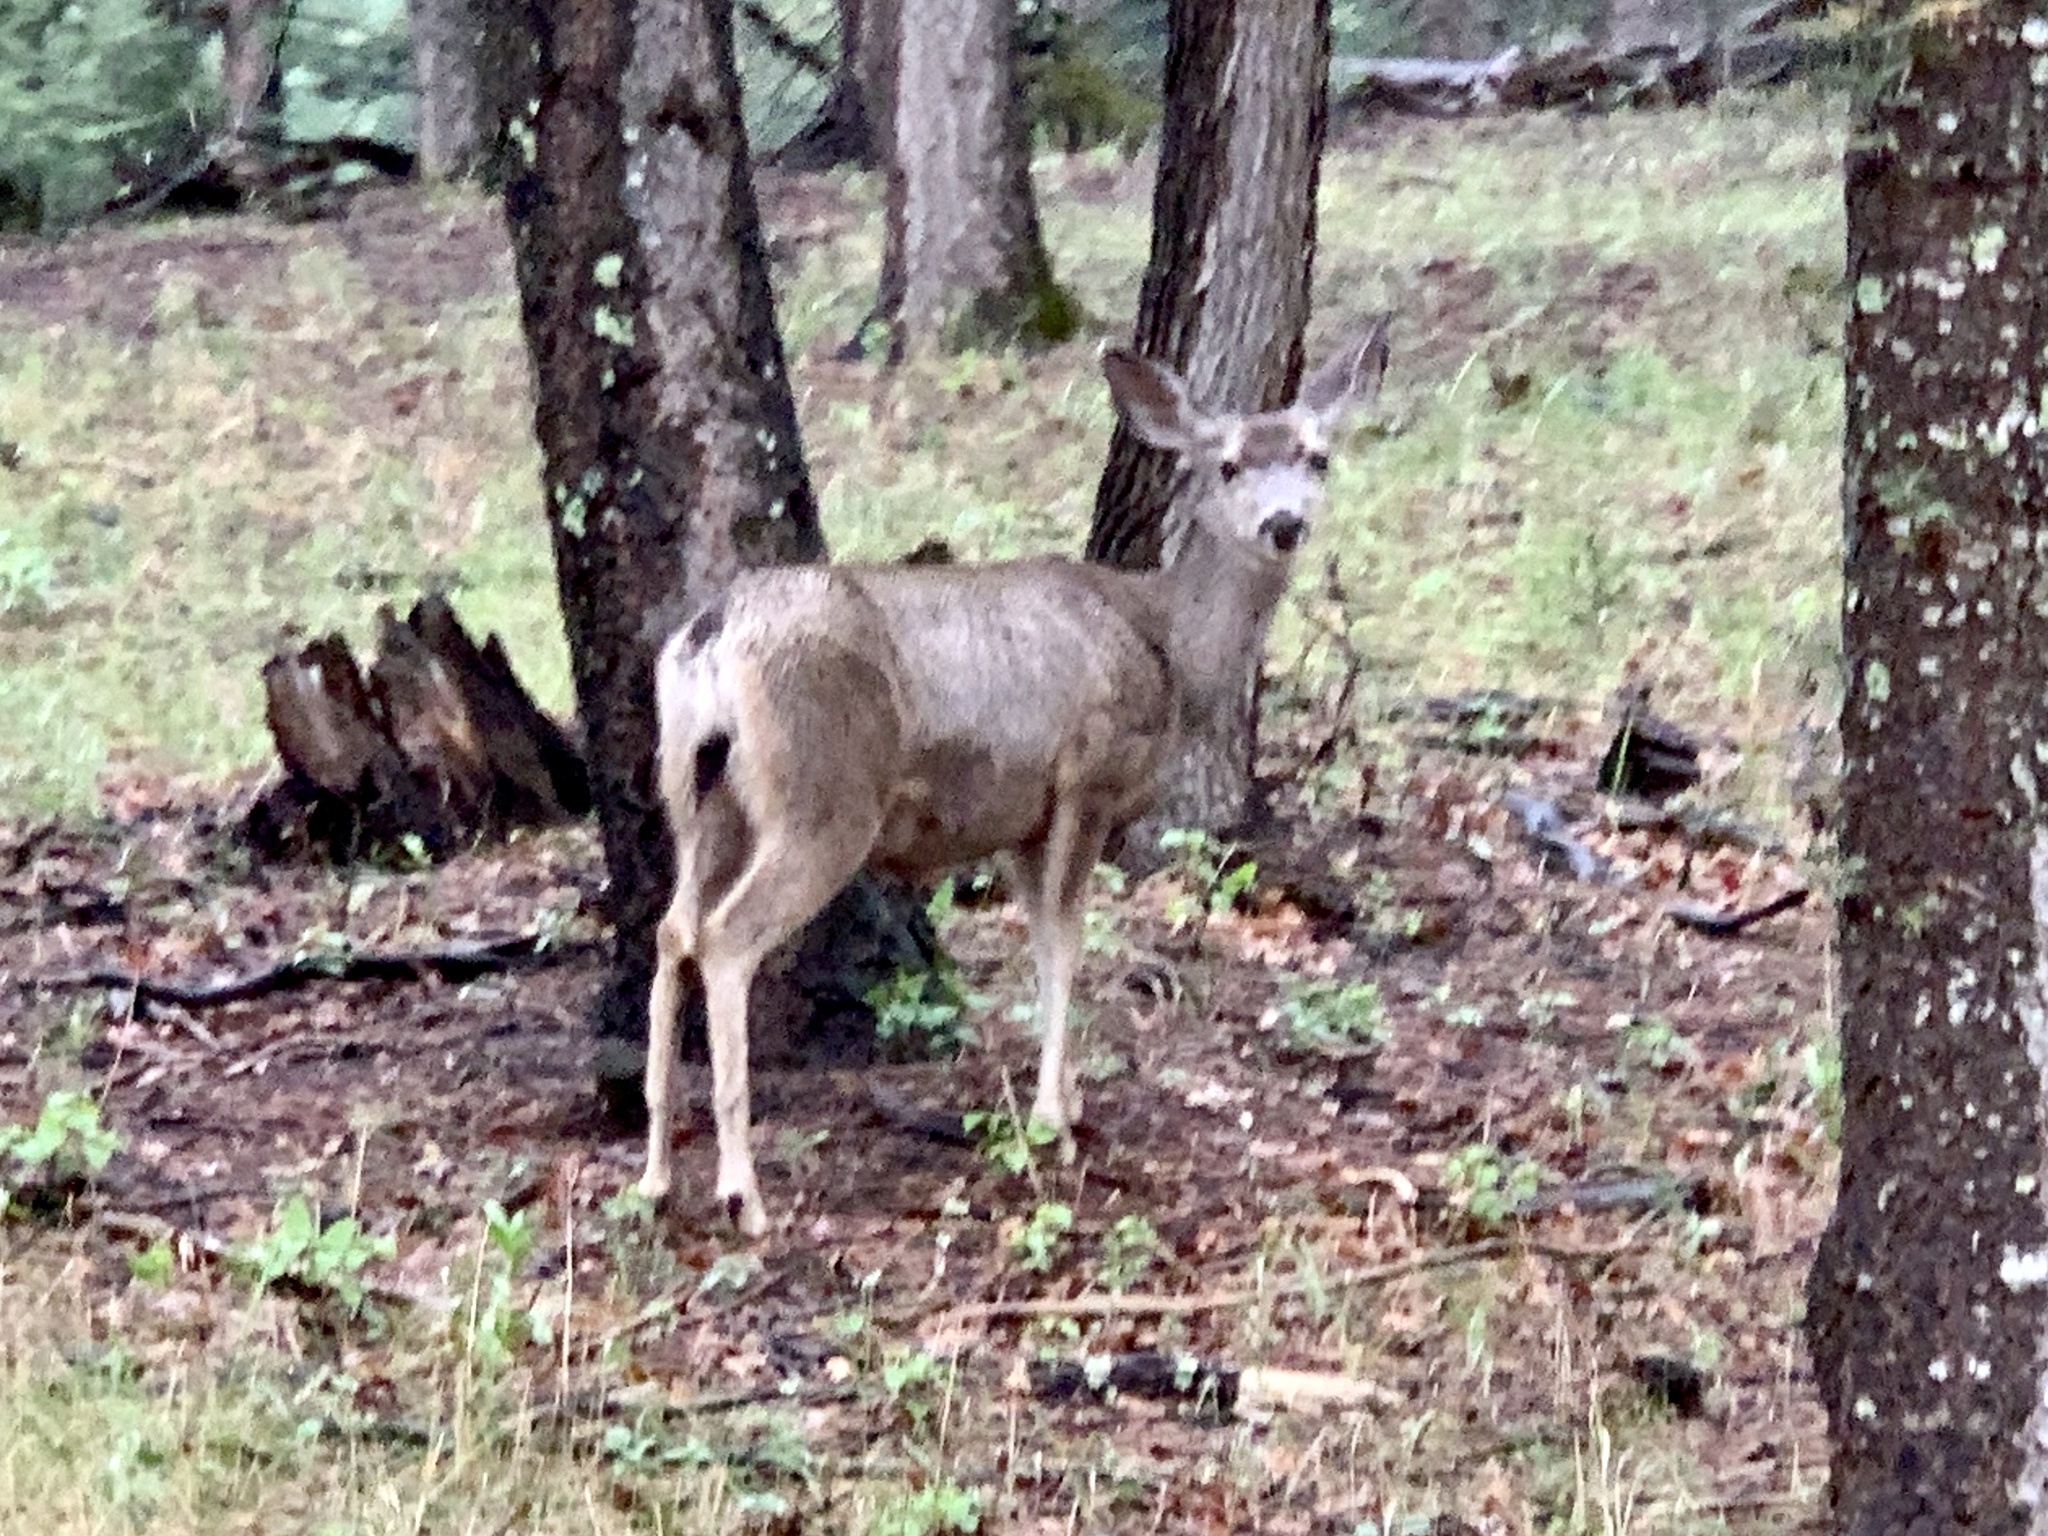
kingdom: Animalia
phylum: Chordata
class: Mammalia
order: Artiodactyla
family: Cervidae
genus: Odocoileus
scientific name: Odocoileus hemionus
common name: Mule deer
